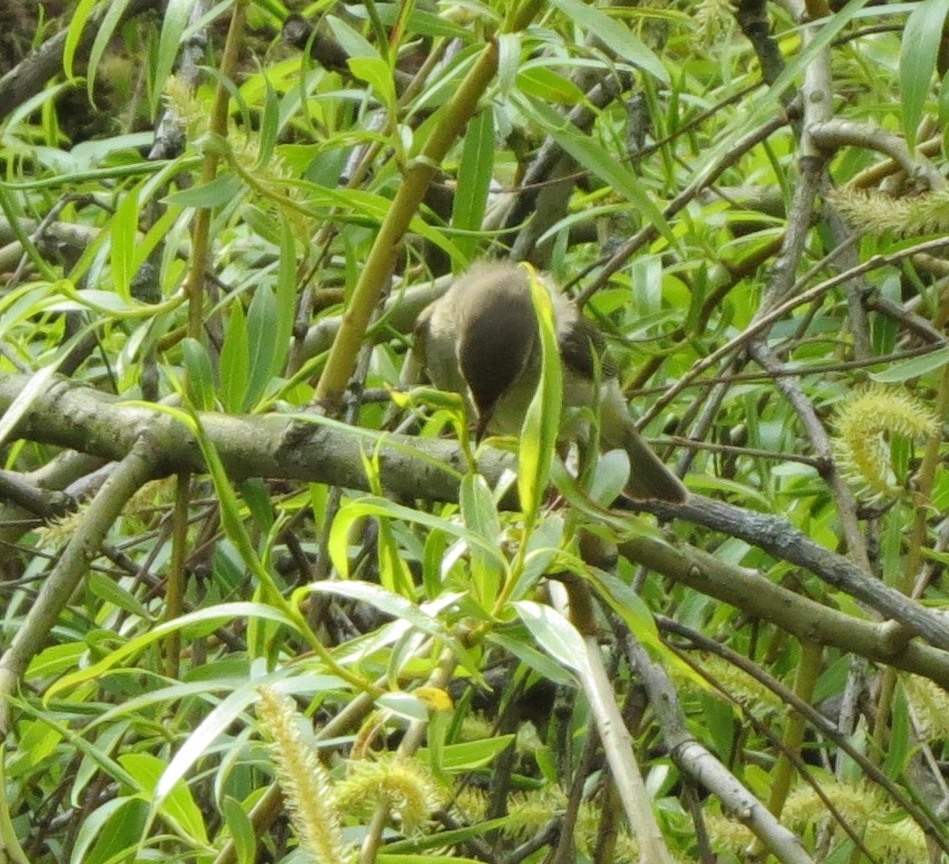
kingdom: Animalia
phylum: Chordata
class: Aves
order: Passeriformes
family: Phylloscopidae
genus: Phylloscopus
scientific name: Phylloscopus collybita
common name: Common chiffchaff
